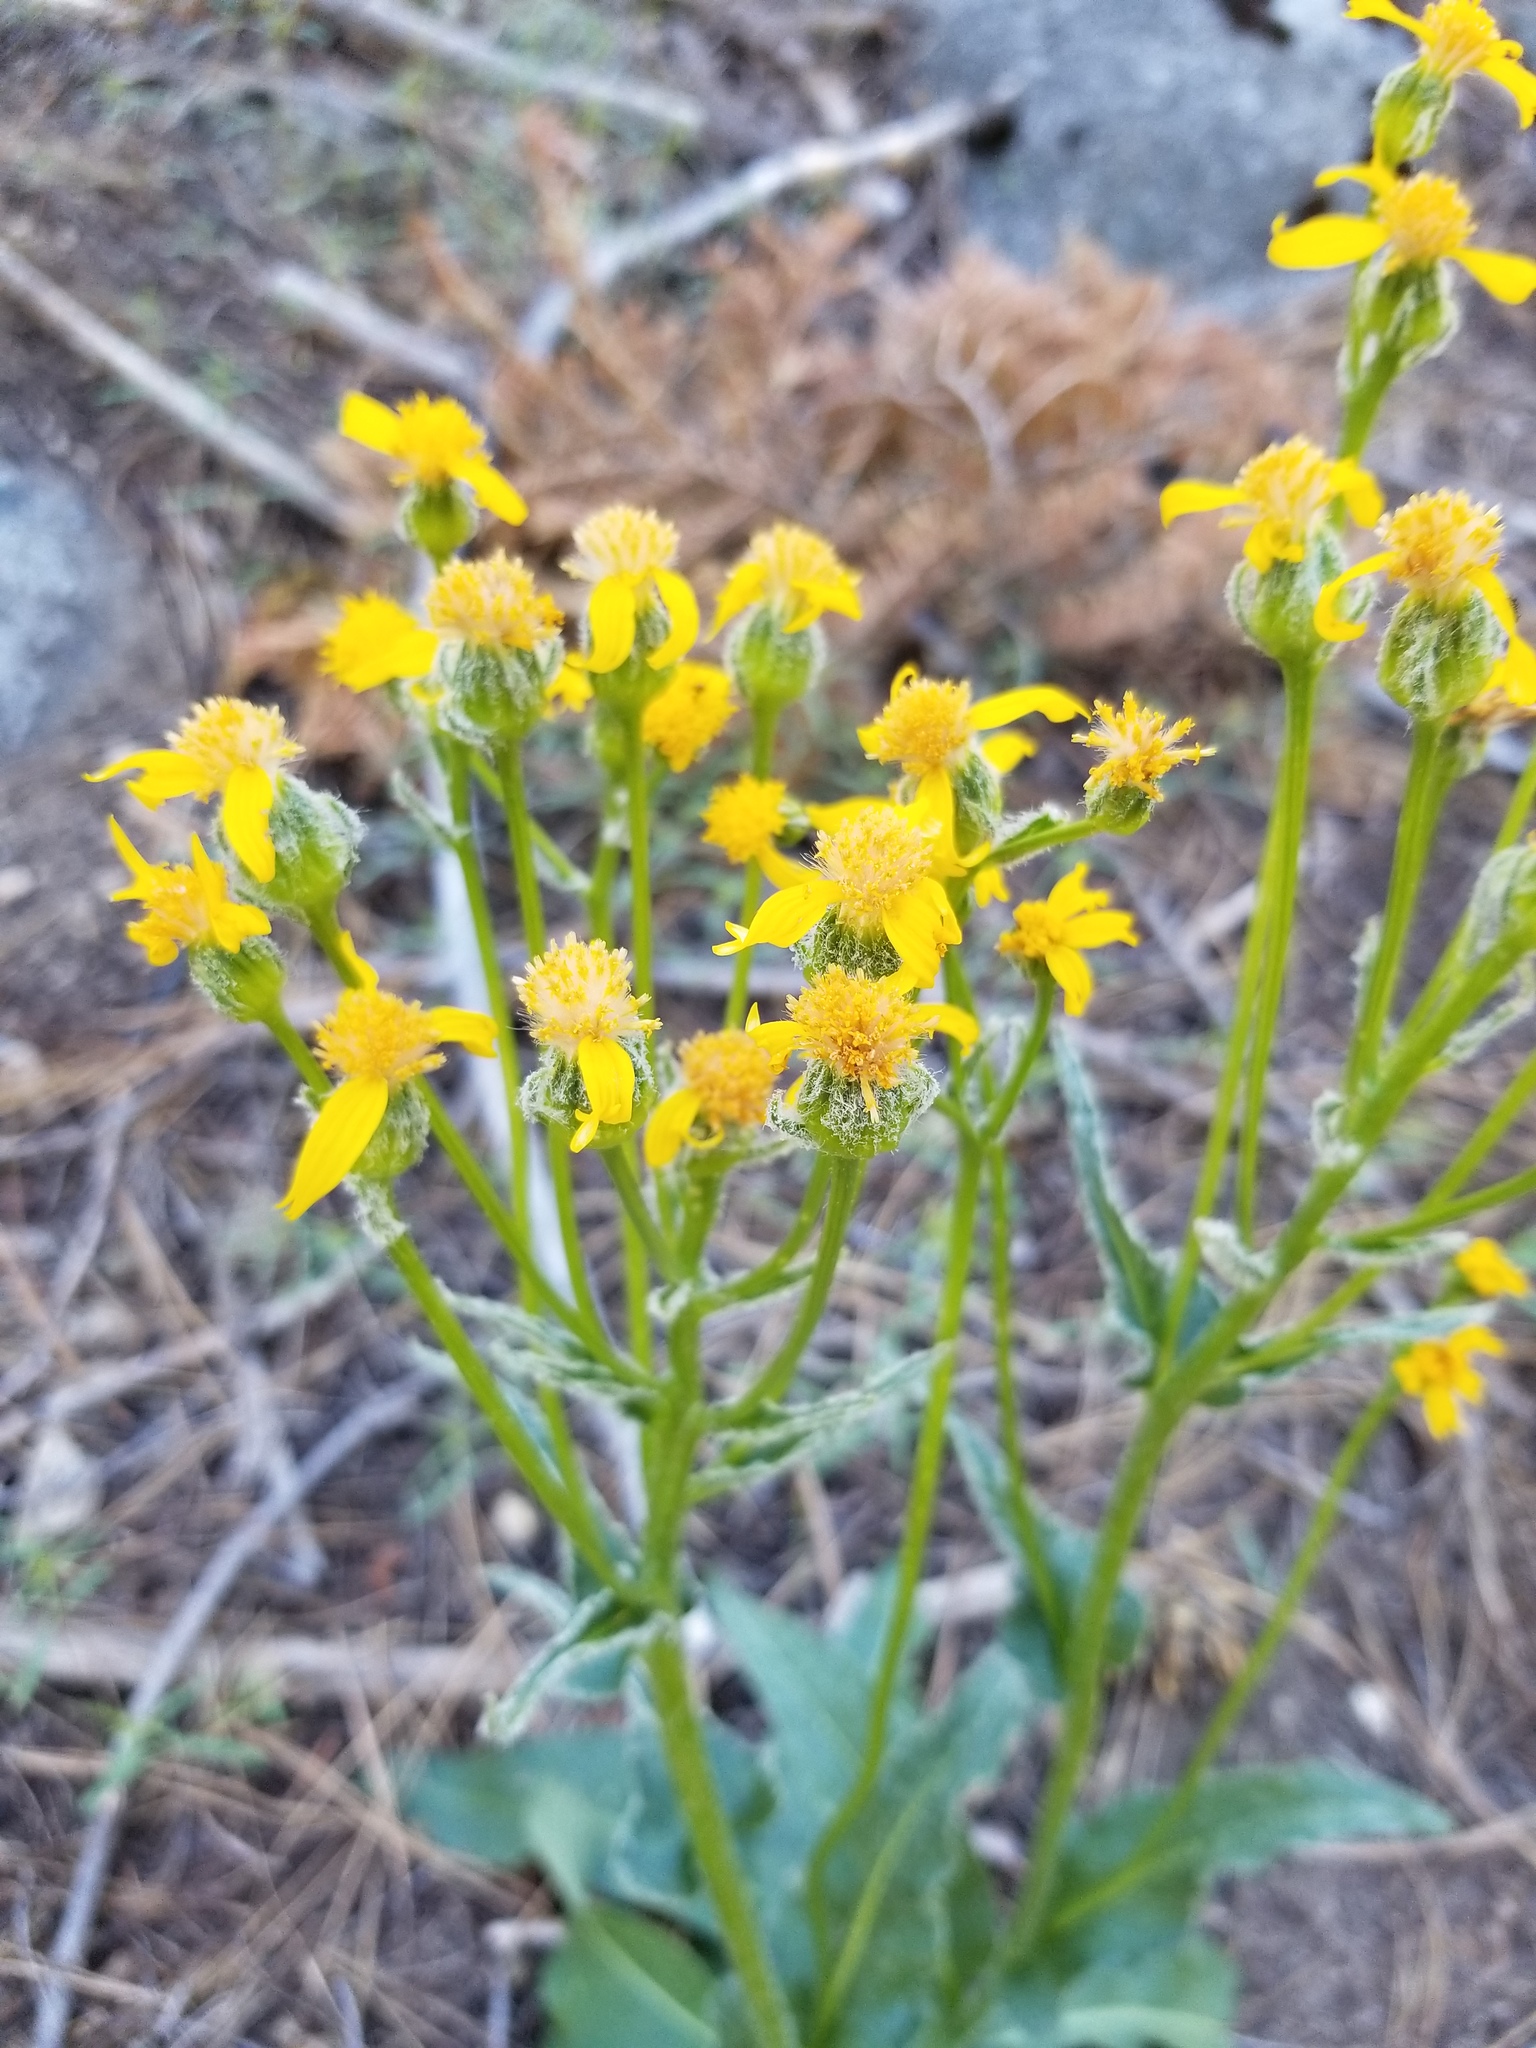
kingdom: Plantae
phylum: Tracheophyta
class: Magnoliopsida
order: Asterales
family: Asteraceae
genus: Senecio
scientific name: Senecio integerrimus
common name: Gaugeplant
